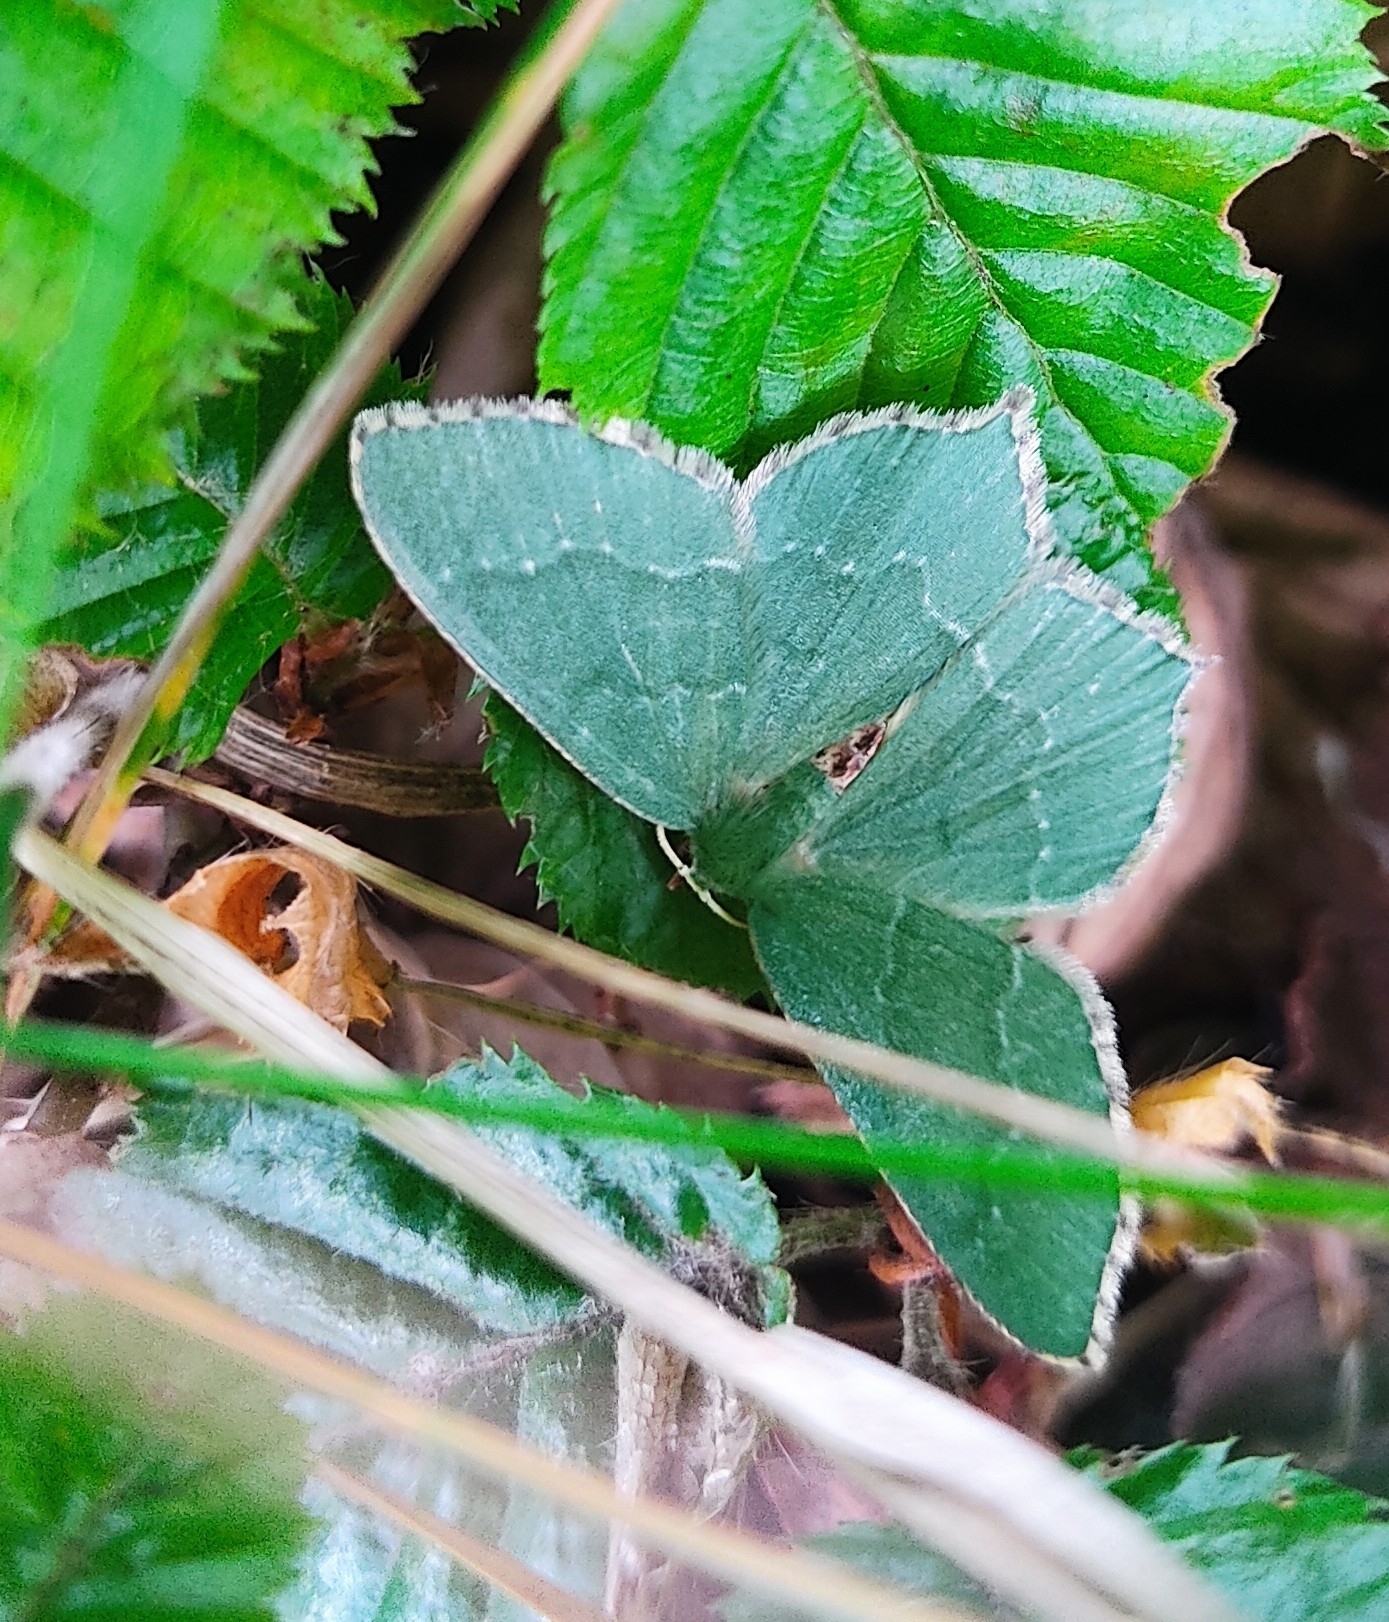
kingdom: Animalia
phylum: Arthropoda
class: Insecta
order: Lepidoptera
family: Geometridae
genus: Hemithea
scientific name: Hemithea aestivaria
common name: Common emerald
